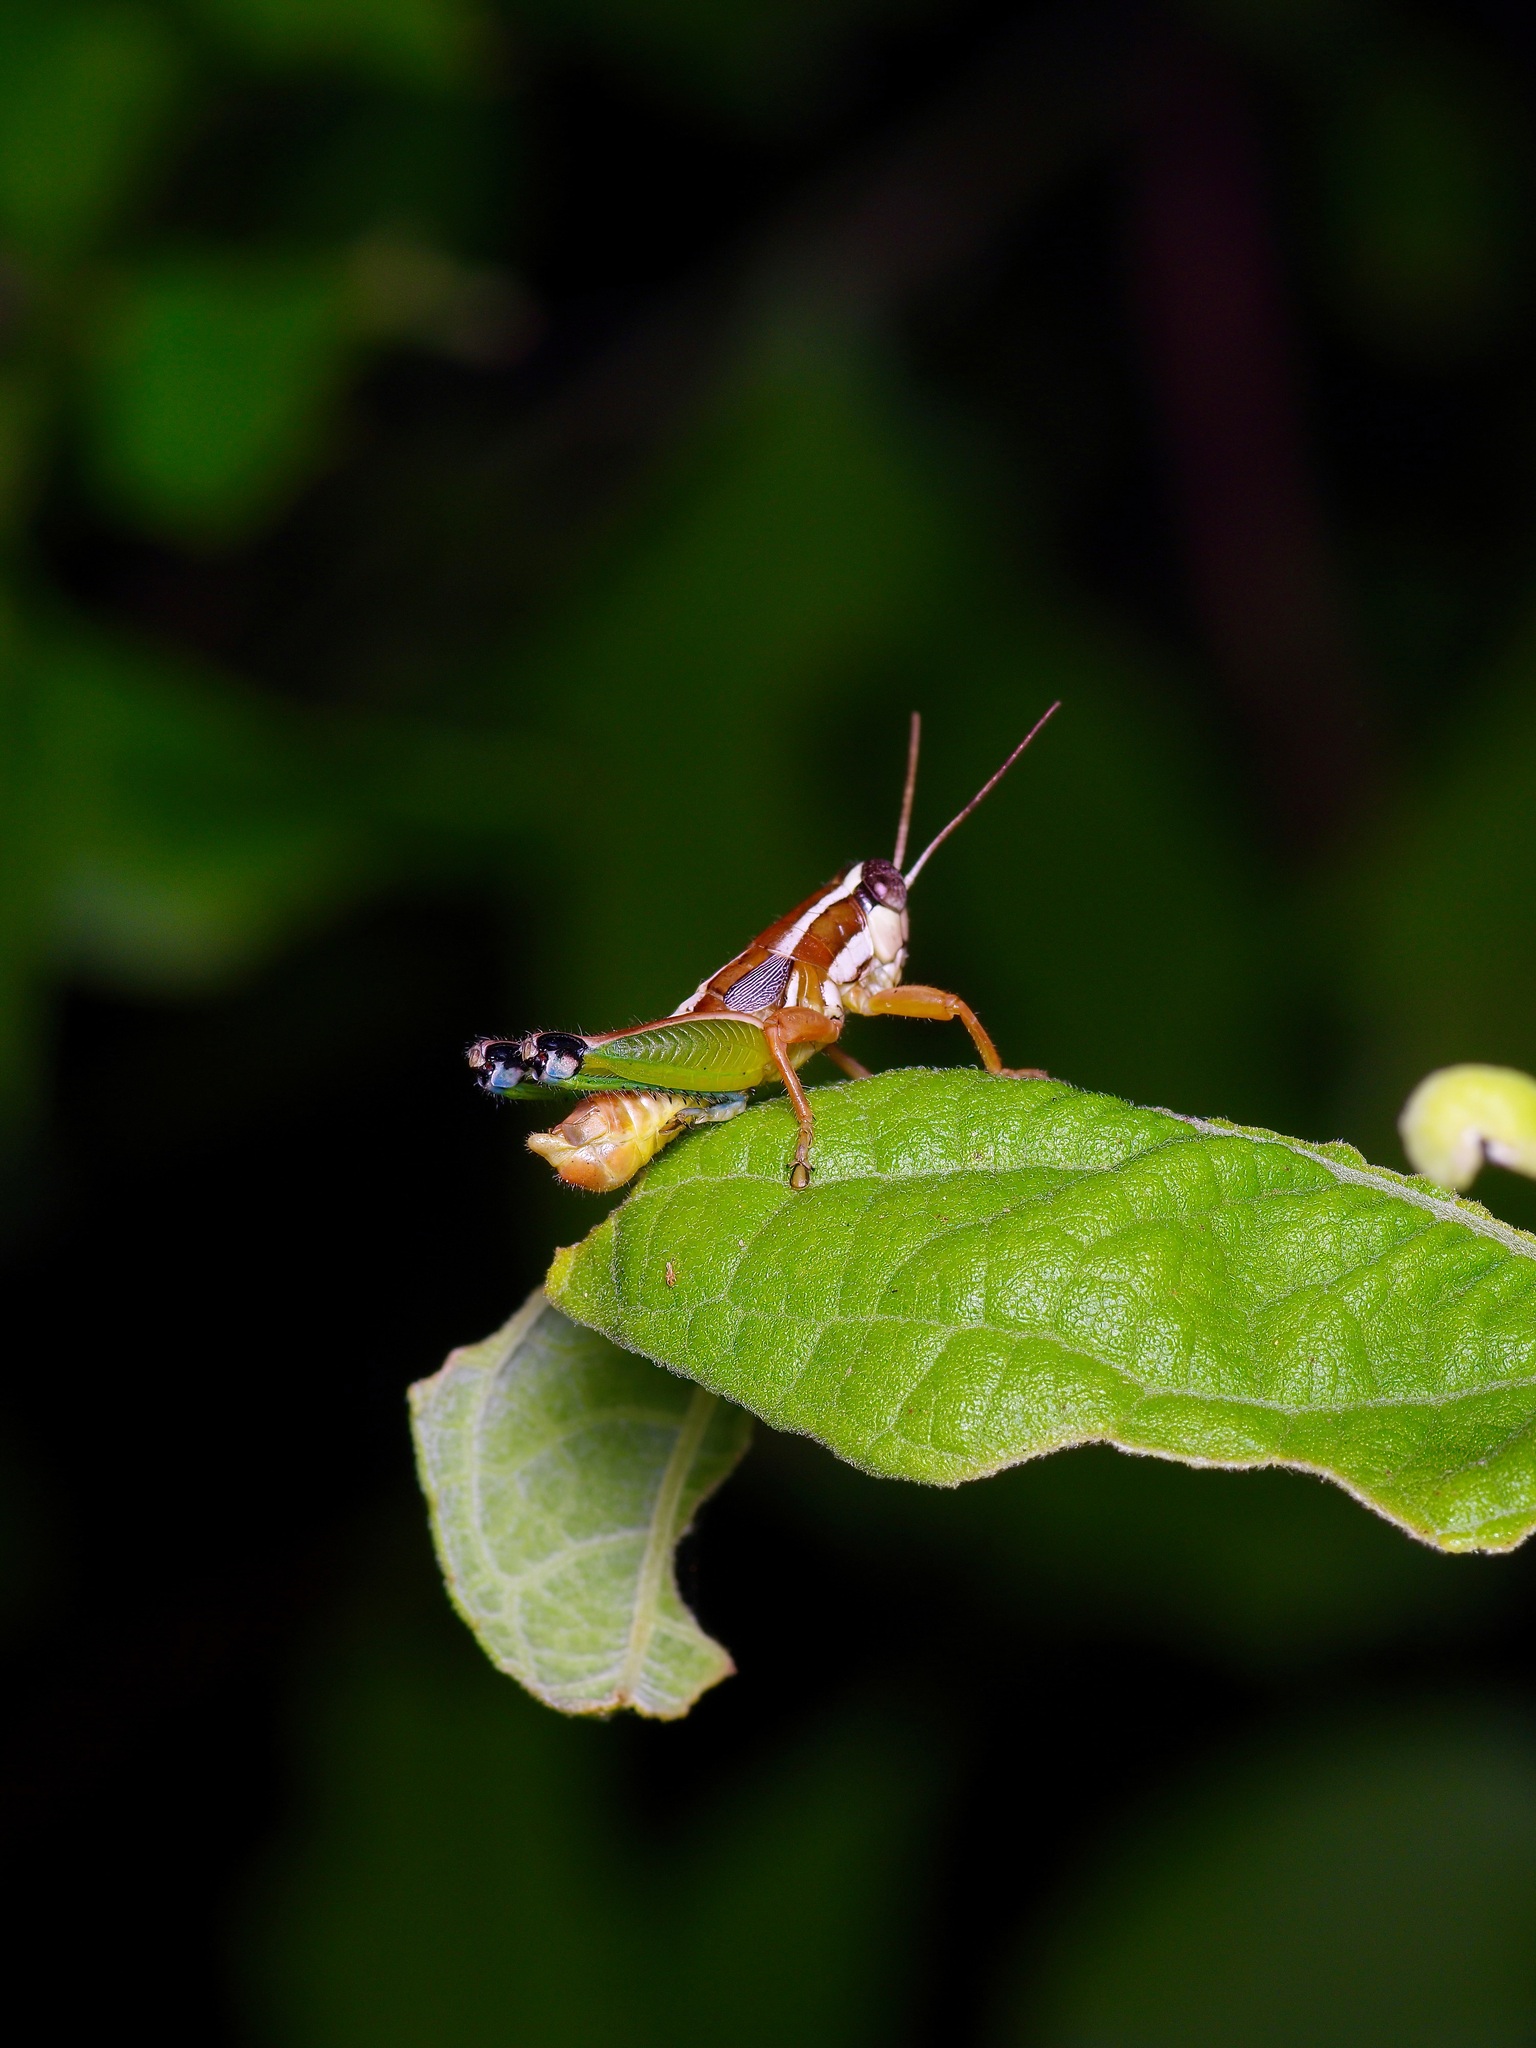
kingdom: Animalia
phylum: Arthropoda
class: Insecta
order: Orthoptera
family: Acrididae
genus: Phaedrotettix
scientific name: Phaedrotettix dumicolus
